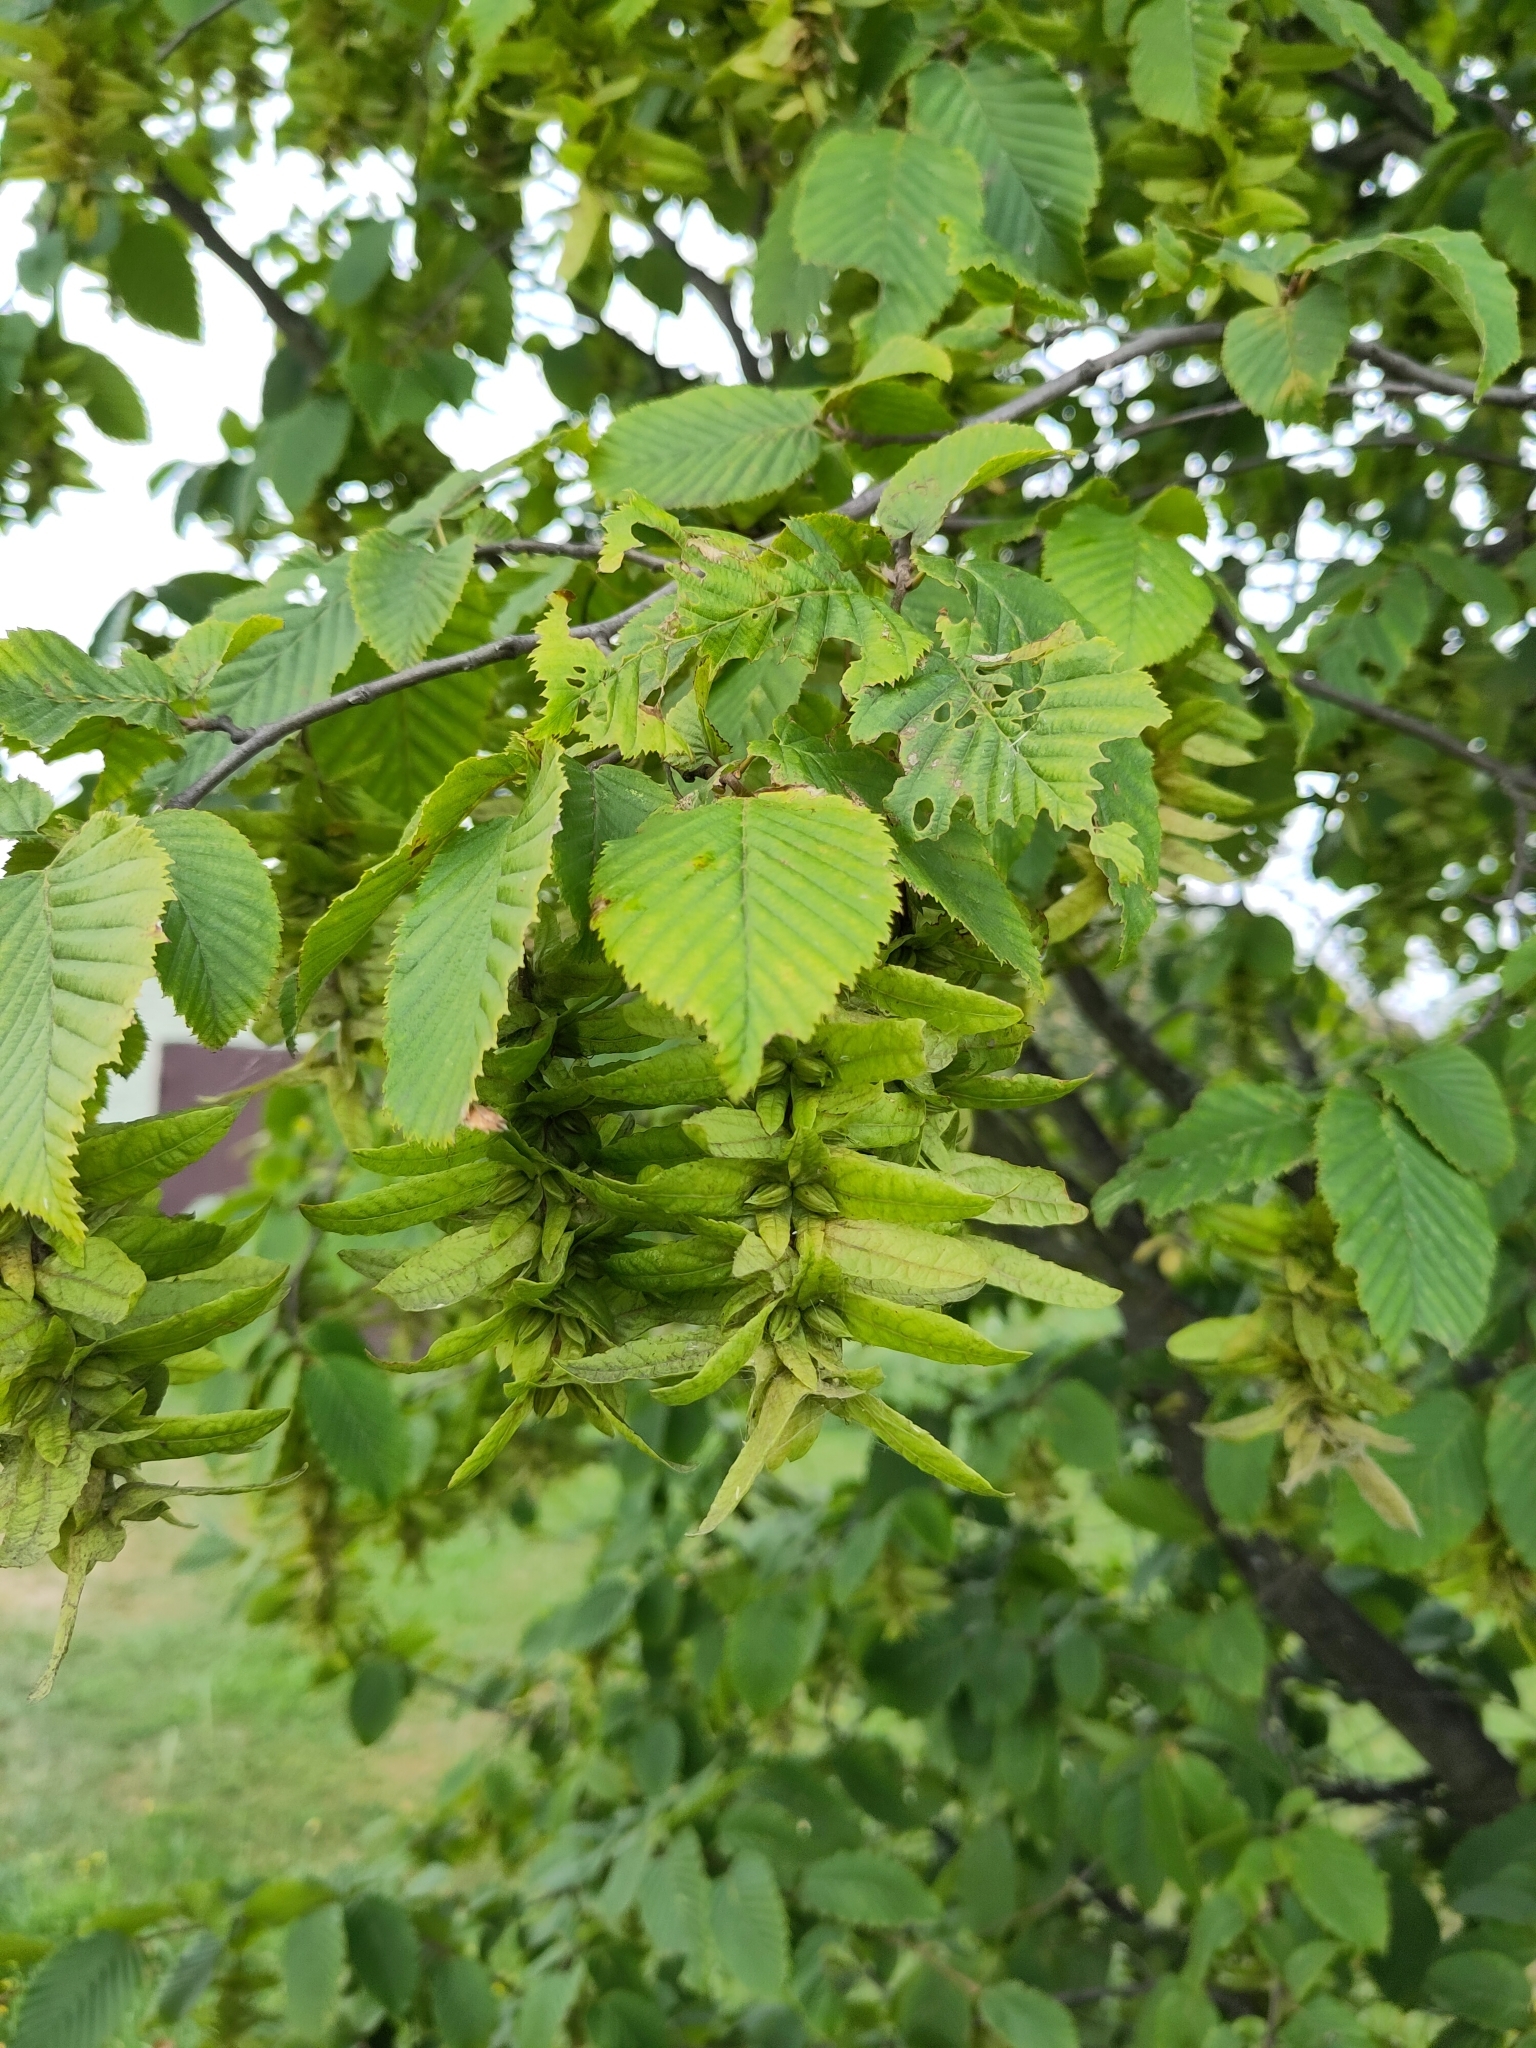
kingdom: Plantae
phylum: Tracheophyta
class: Magnoliopsida
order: Fagales
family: Betulaceae
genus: Carpinus
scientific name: Carpinus betulus
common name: Hornbeam
